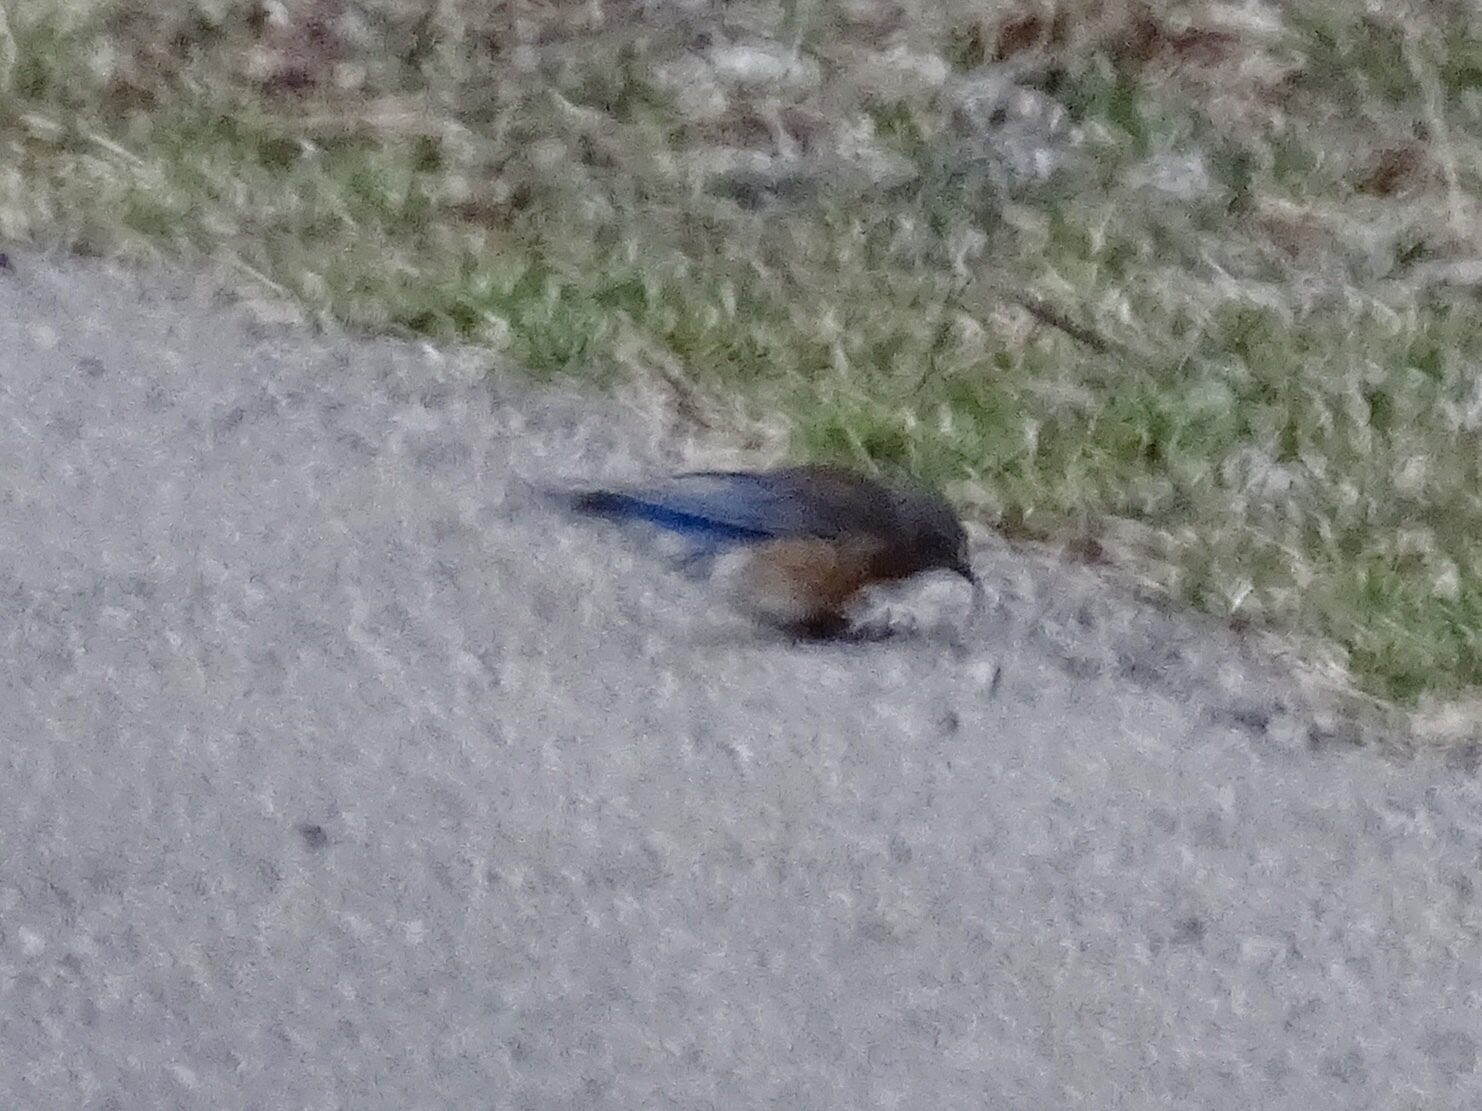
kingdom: Animalia
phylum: Chordata
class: Aves
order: Passeriformes
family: Turdidae
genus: Sialia
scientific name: Sialia mexicana
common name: Western bluebird
